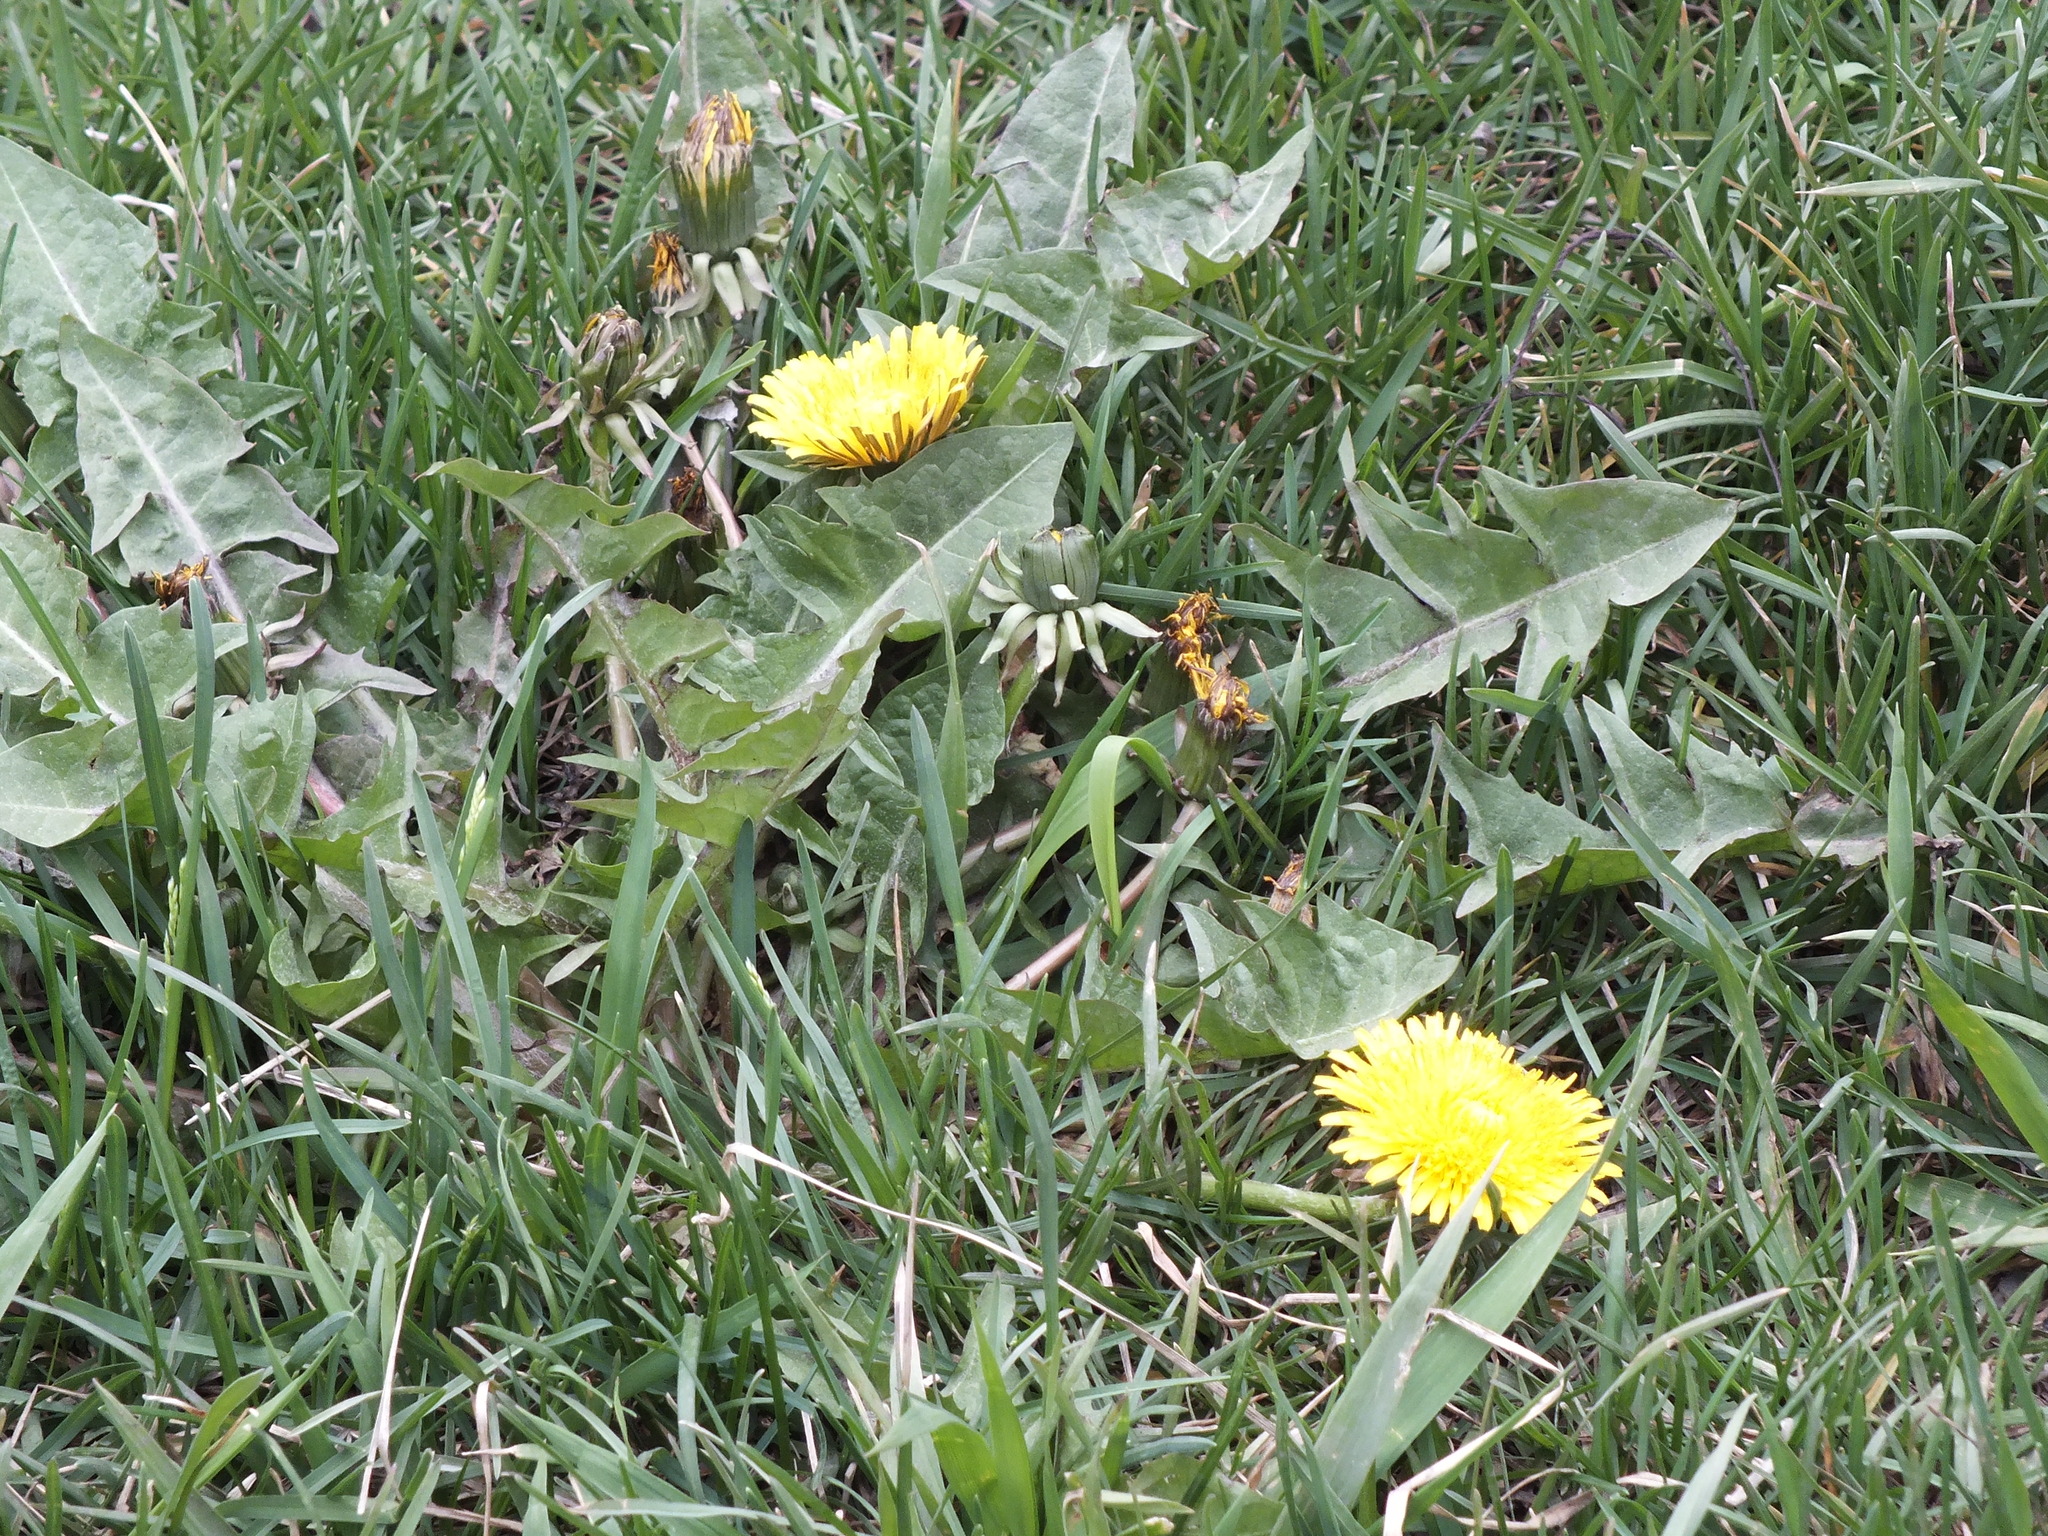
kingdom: Plantae
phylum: Tracheophyta
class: Magnoliopsida
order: Asterales
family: Asteraceae
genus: Taraxacum
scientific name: Taraxacum officinale
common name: Common dandelion
